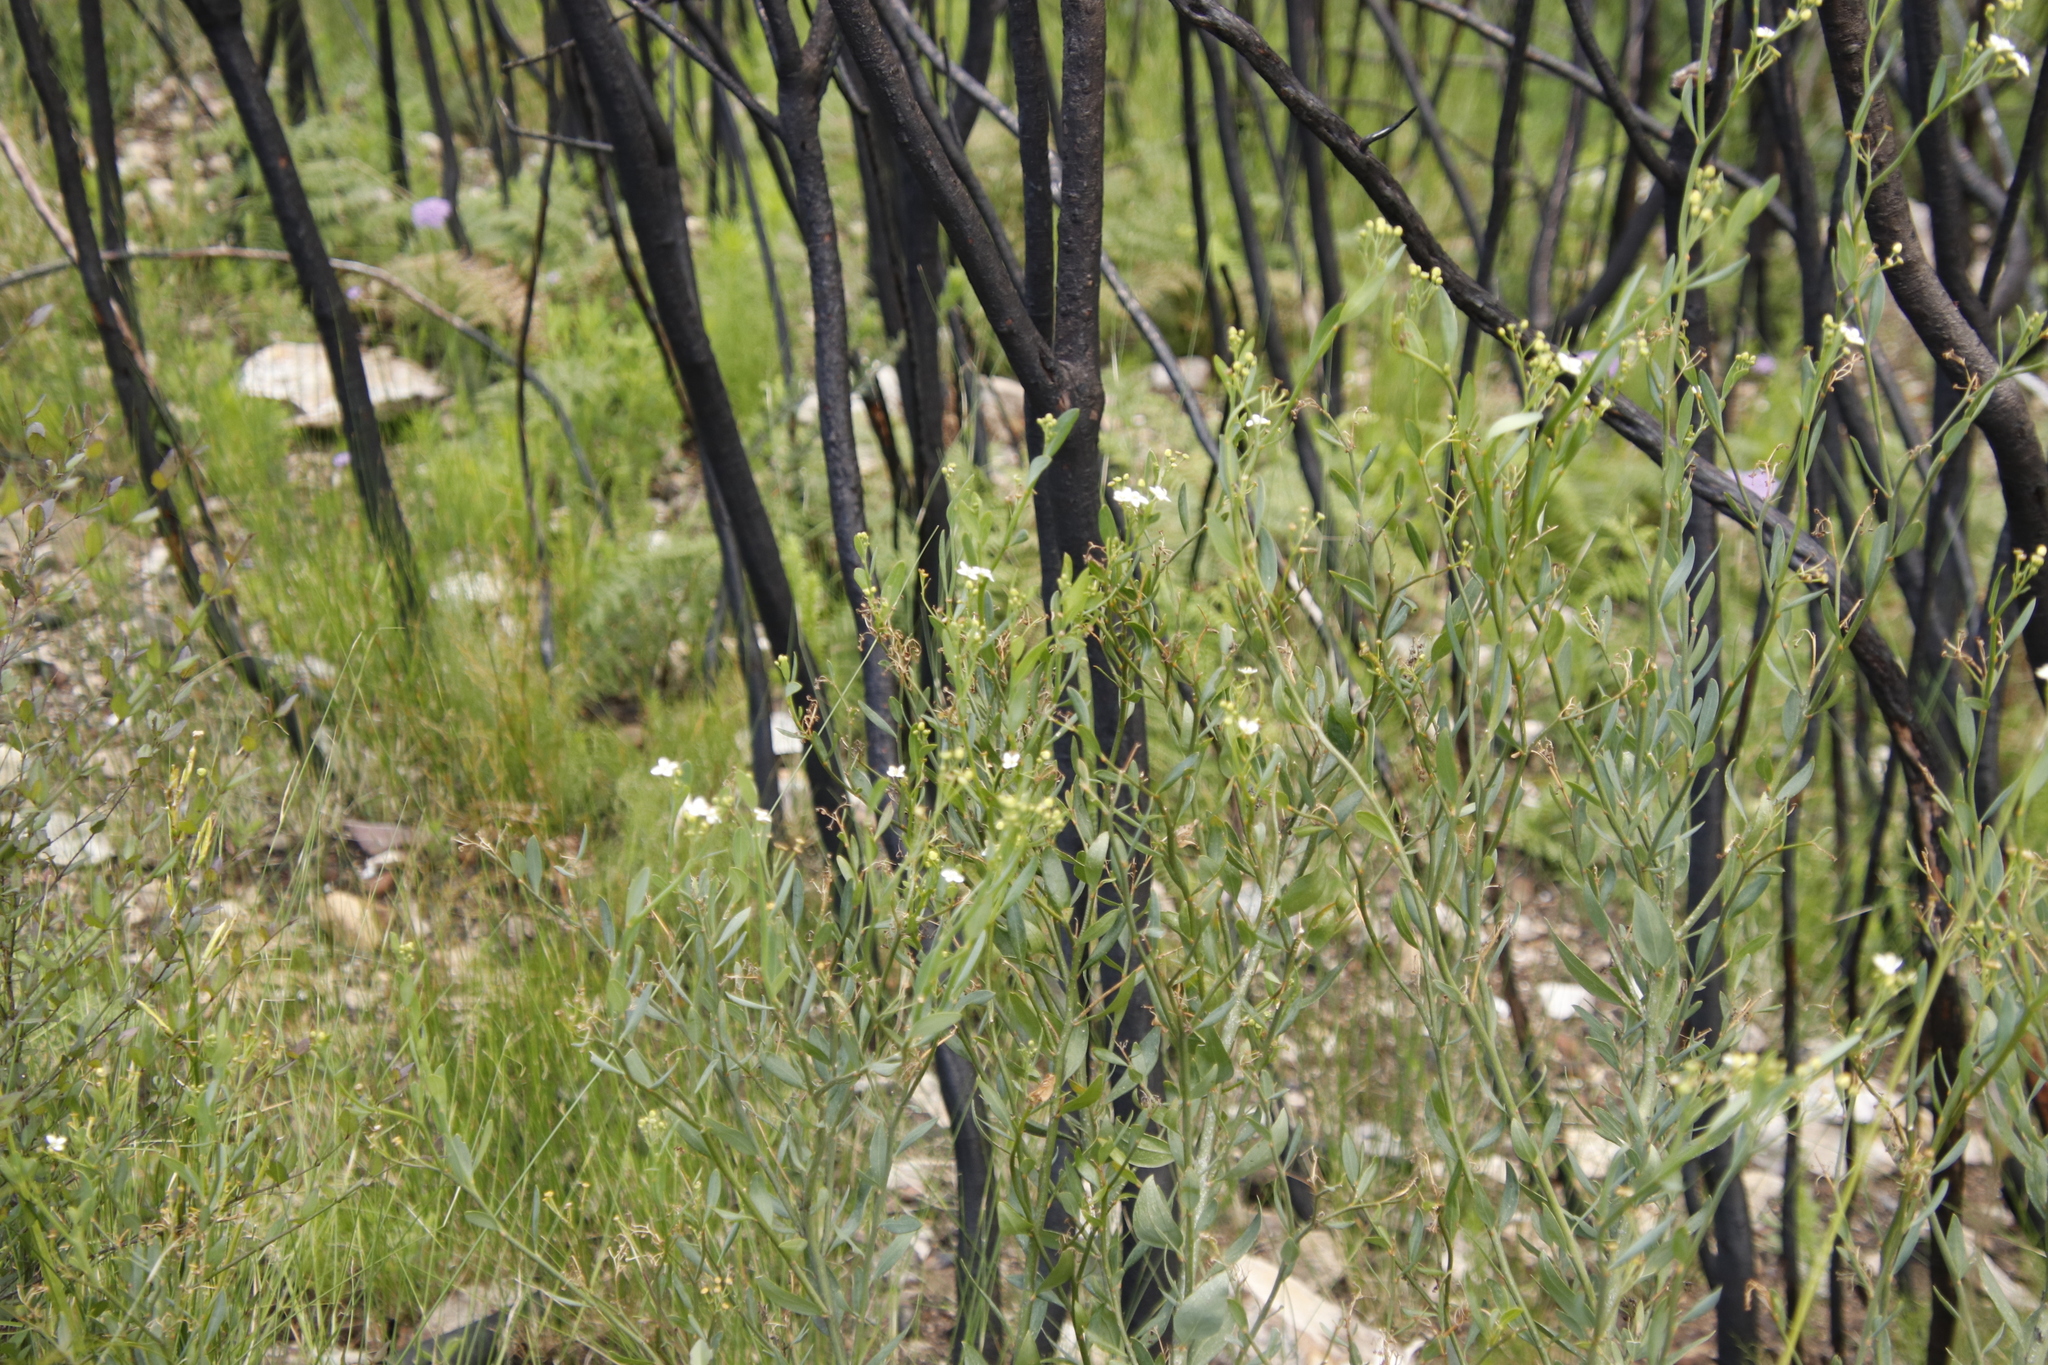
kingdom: Plantae
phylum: Tracheophyta
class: Magnoliopsida
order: Solanales
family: Montiniaceae
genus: Montinia
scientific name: Montinia caryophyllacea
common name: Wild clove-bush
